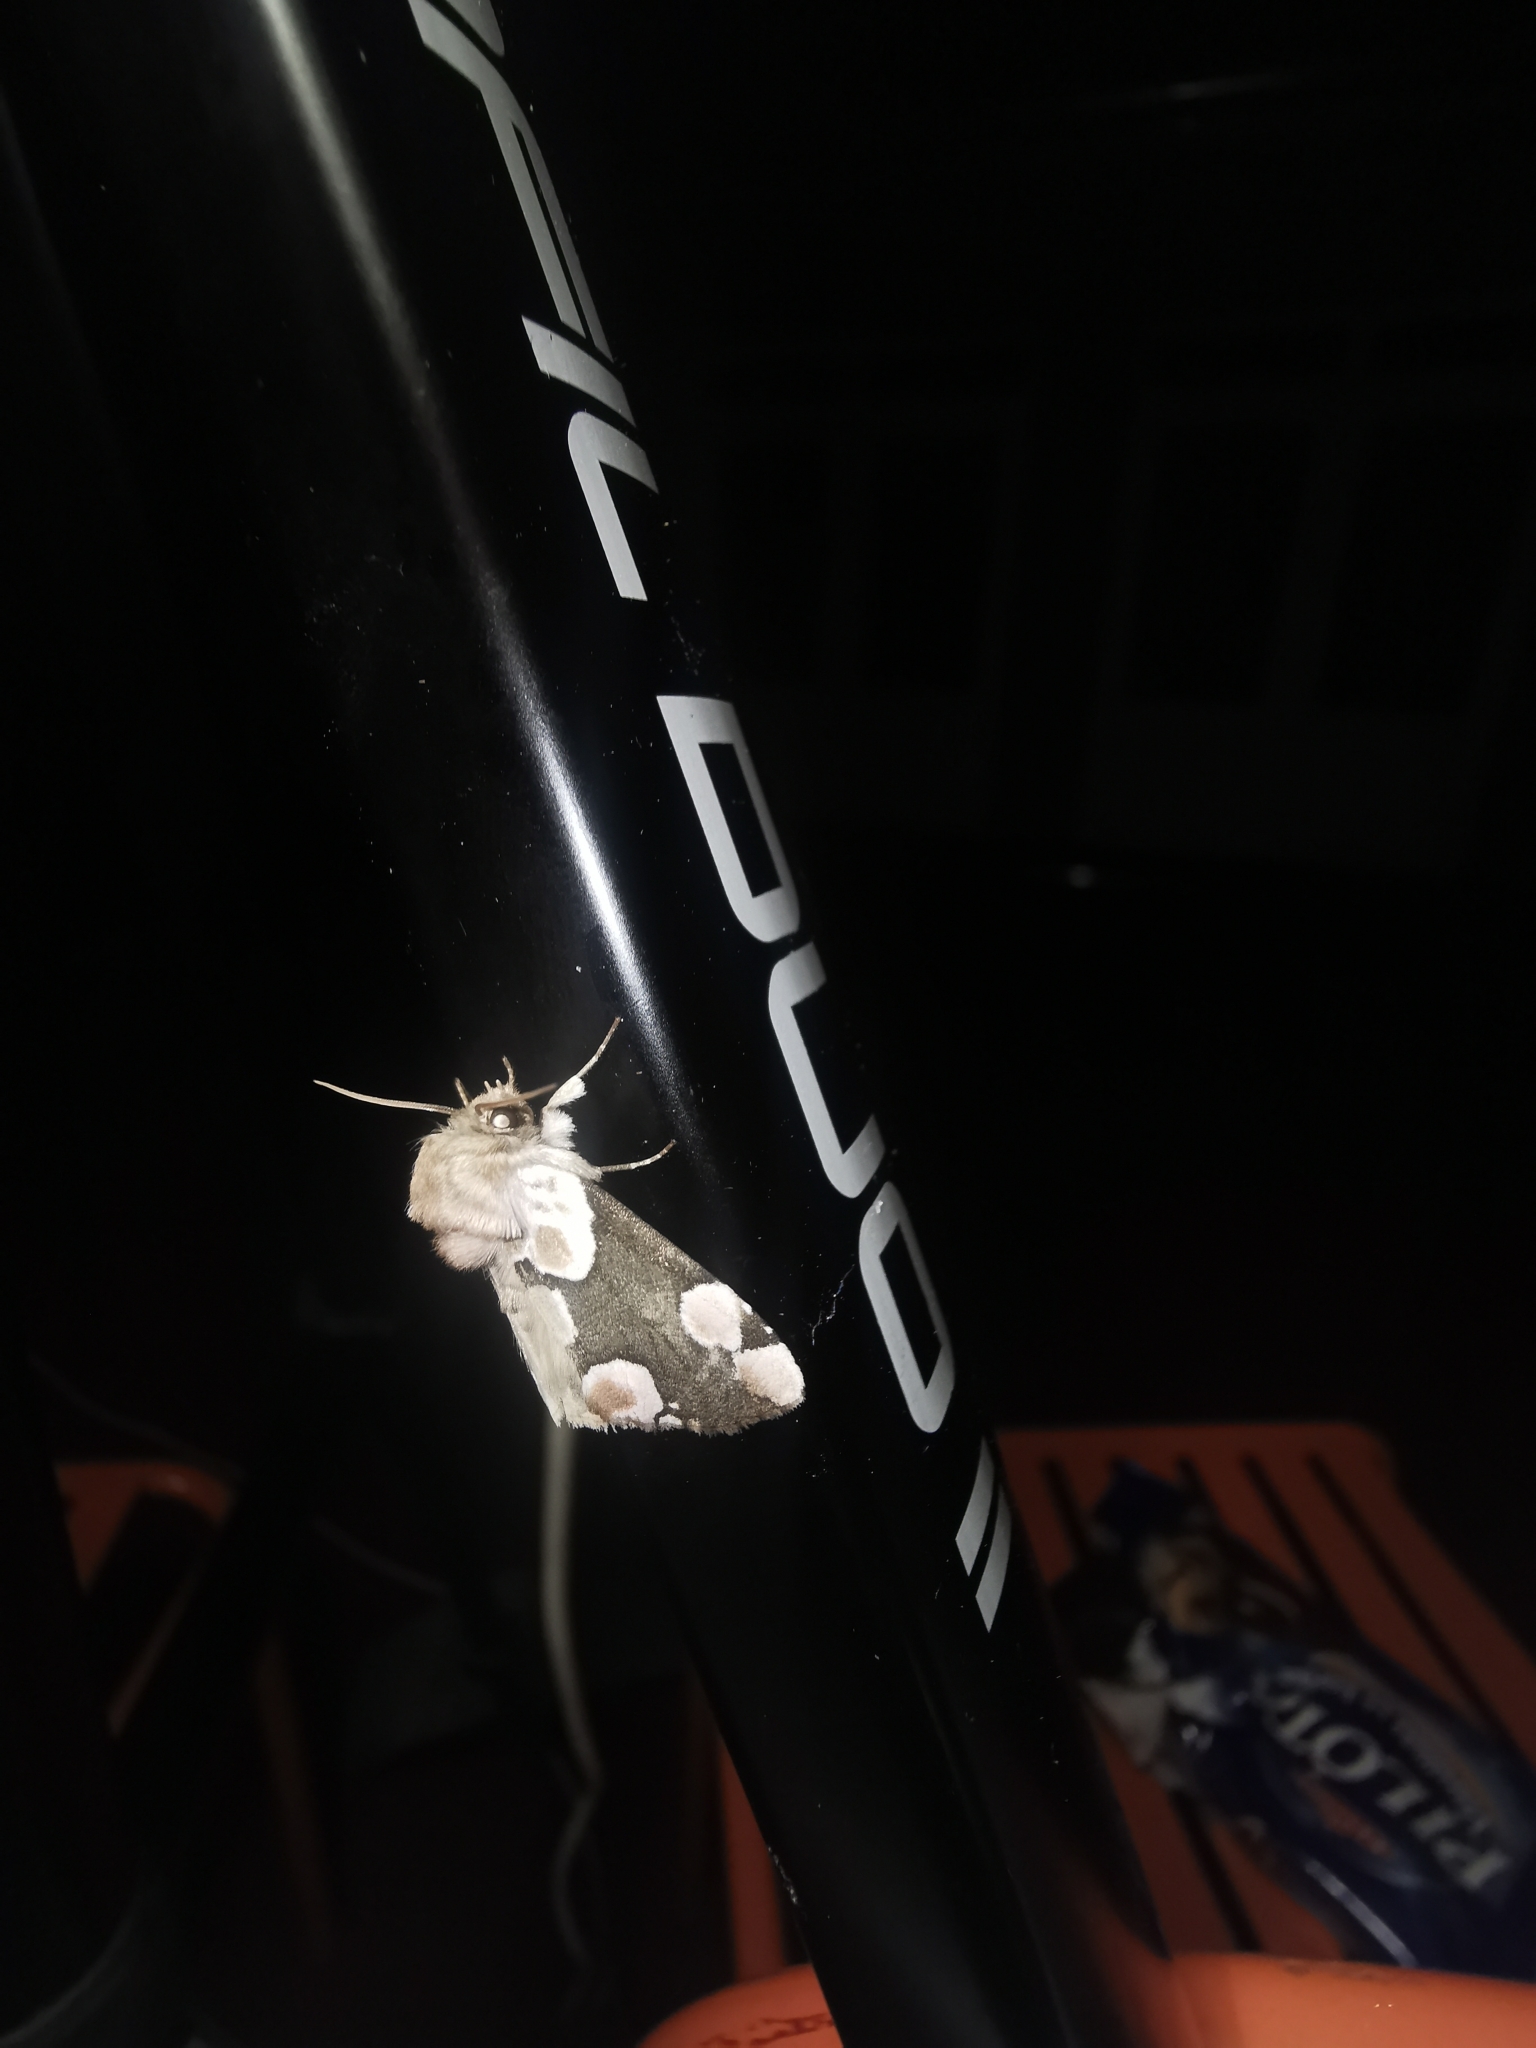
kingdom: Animalia
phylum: Arthropoda
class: Insecta
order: Lepidoptera
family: Drepanidae
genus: Thyatira
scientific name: Thyatira batis
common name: Peach blossom
